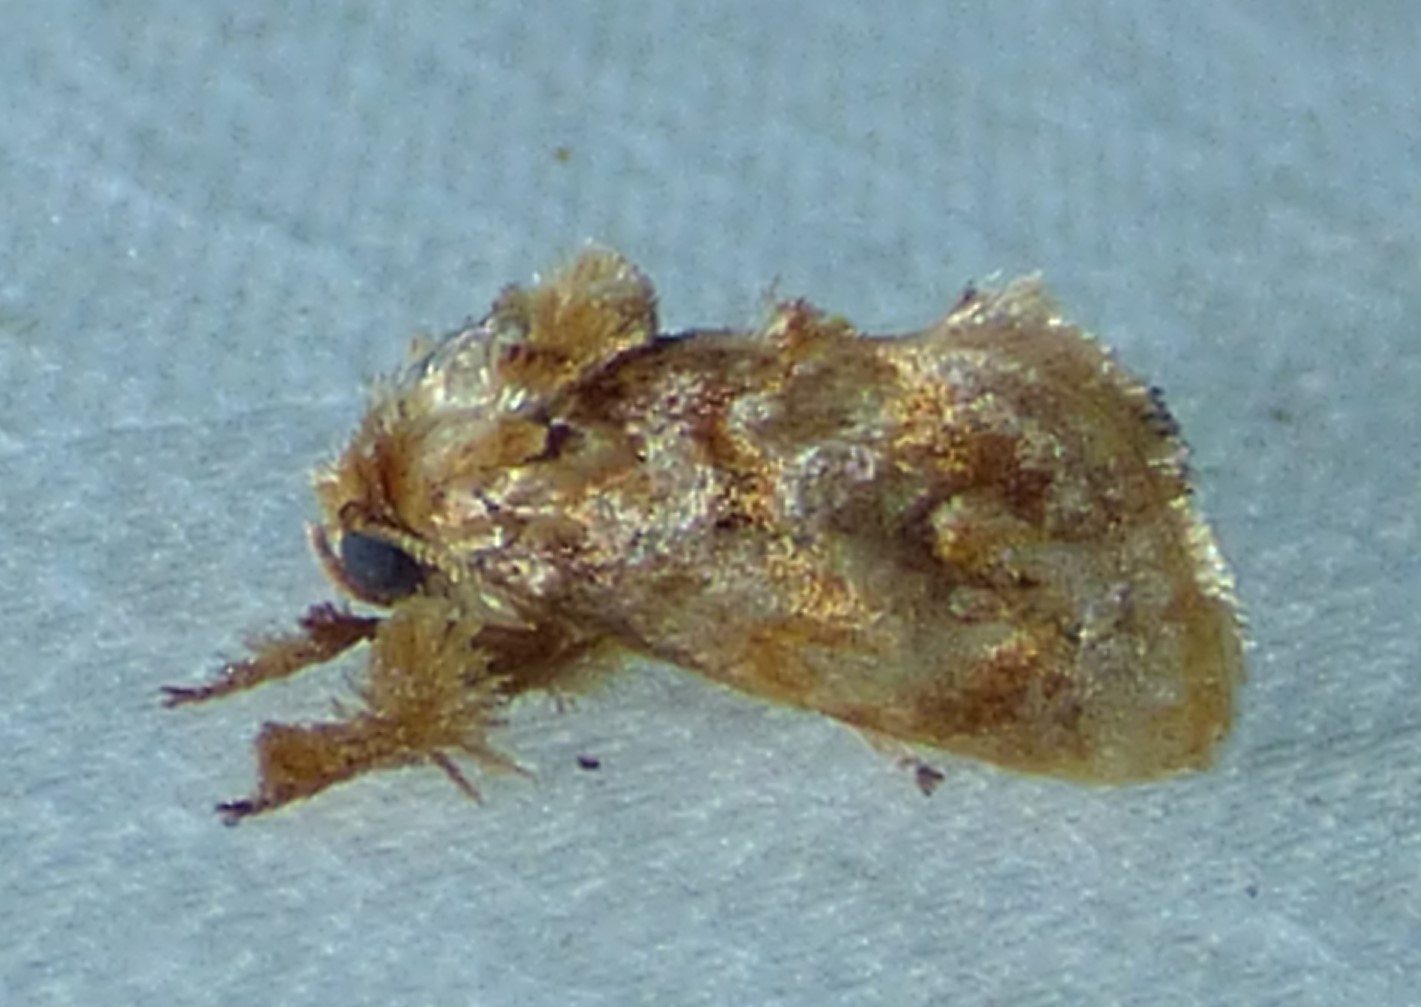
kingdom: Animalia
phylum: Arthropoda
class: Insecta
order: Lepidoptera
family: Limacodidae
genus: Isochaetes
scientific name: Isochaetes beutenmuelleri
